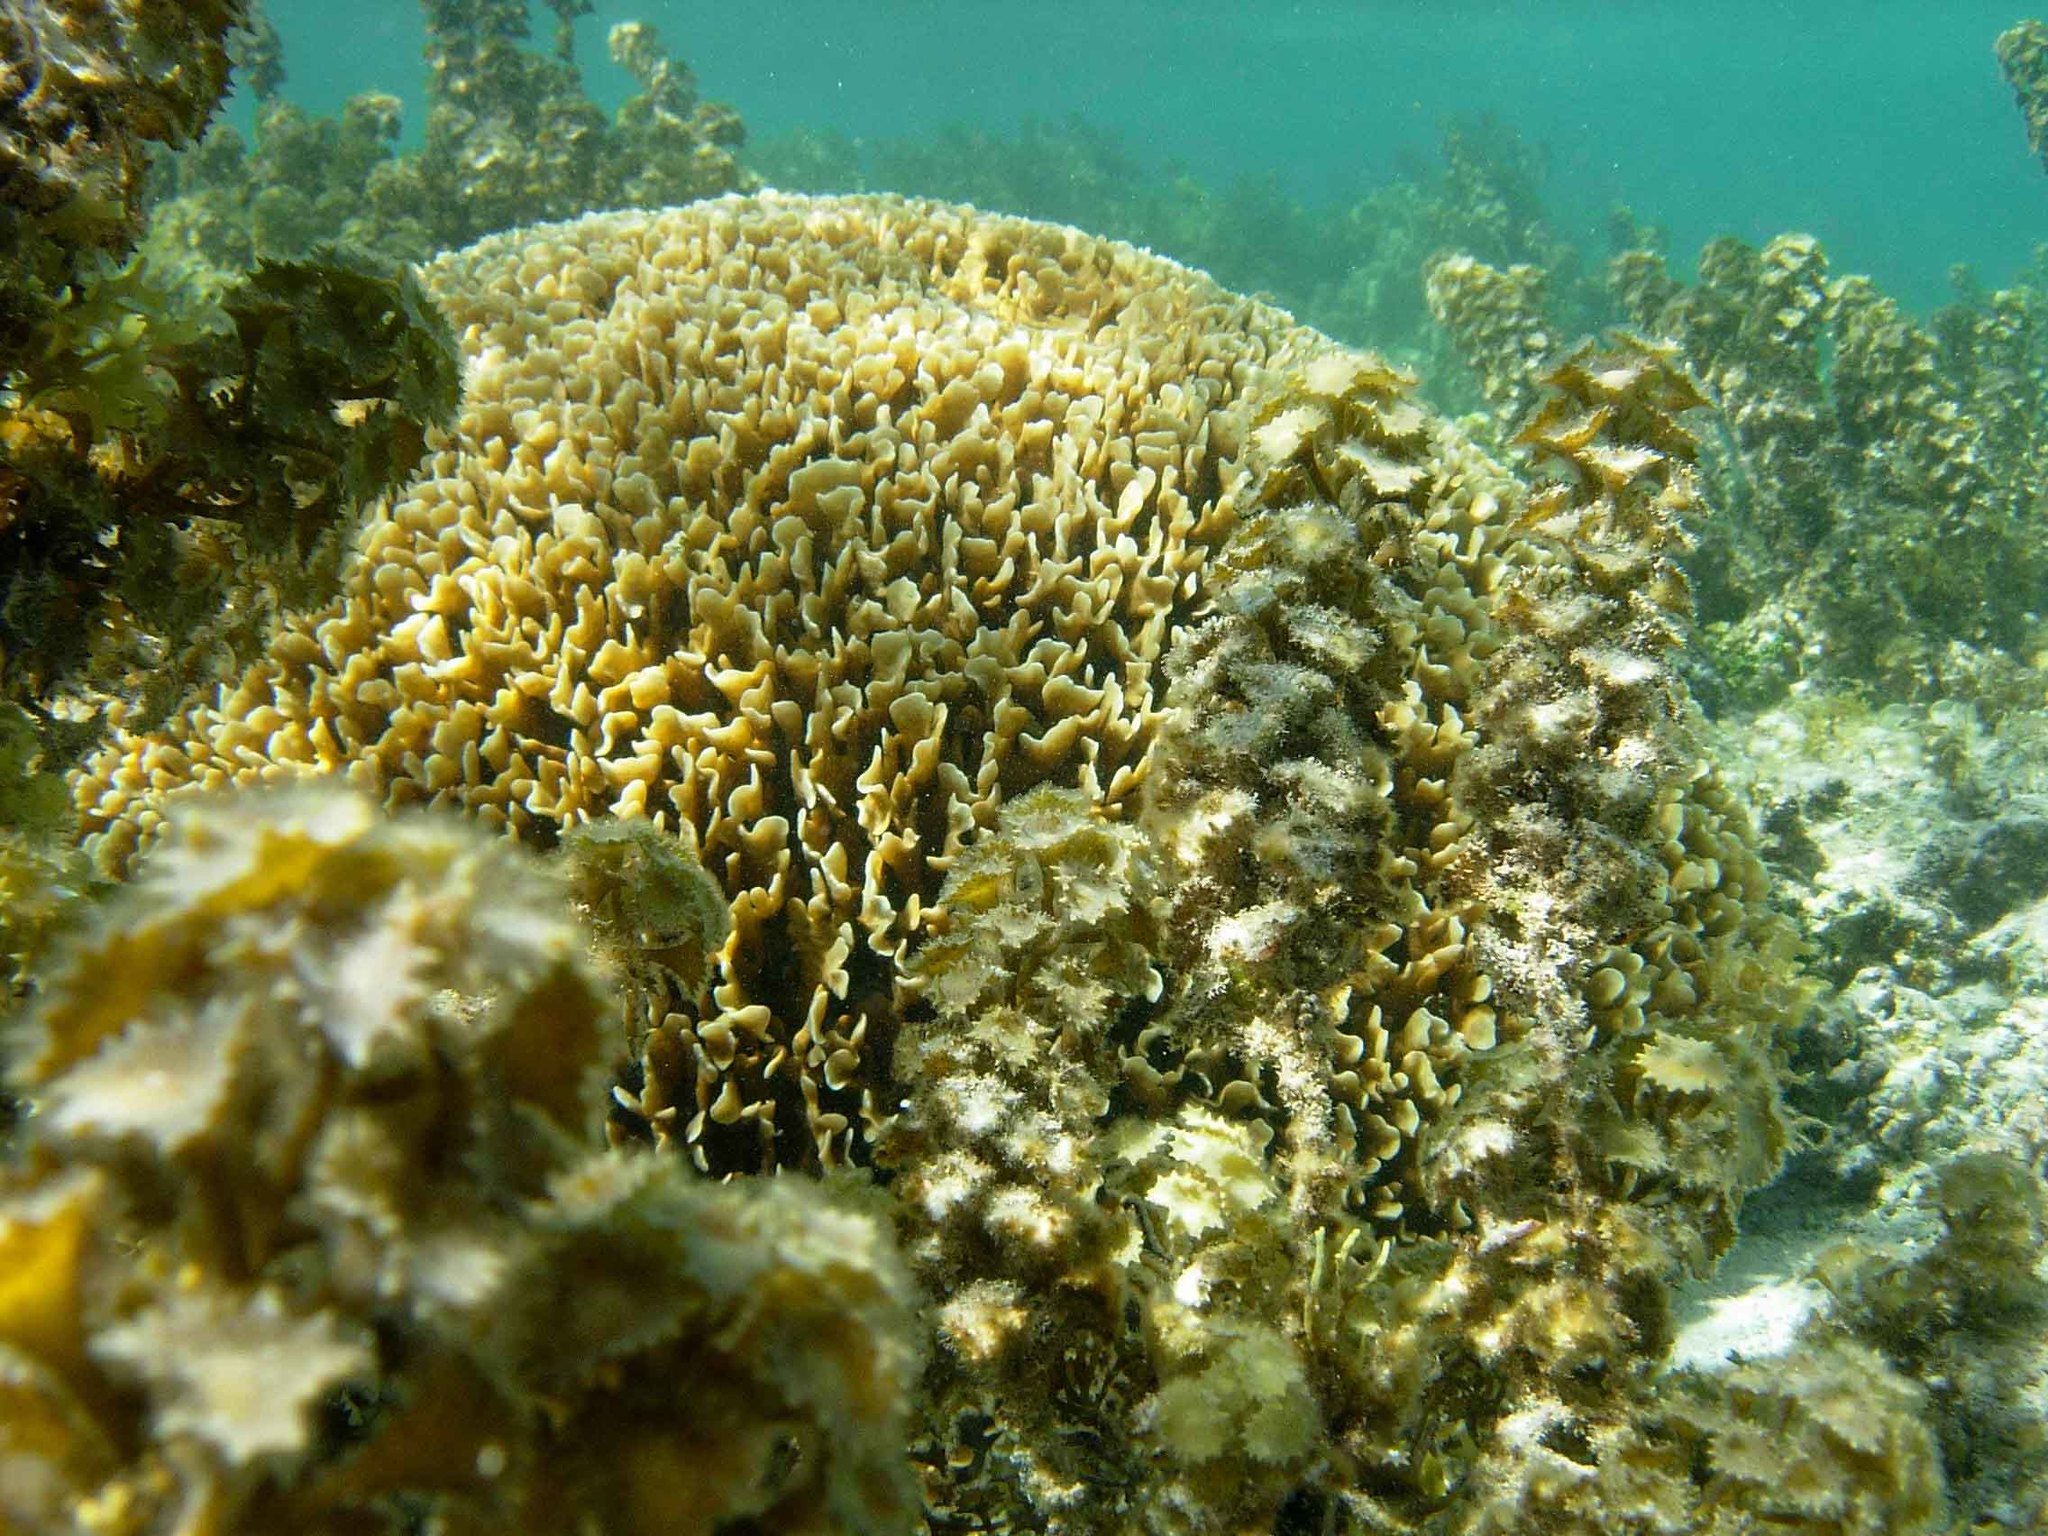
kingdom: Animalia
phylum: Cnidaria
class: Anthozoa
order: Scleractinia
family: Agariciidae
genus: Pavona
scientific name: Pavona cactus
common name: Leaf coral
